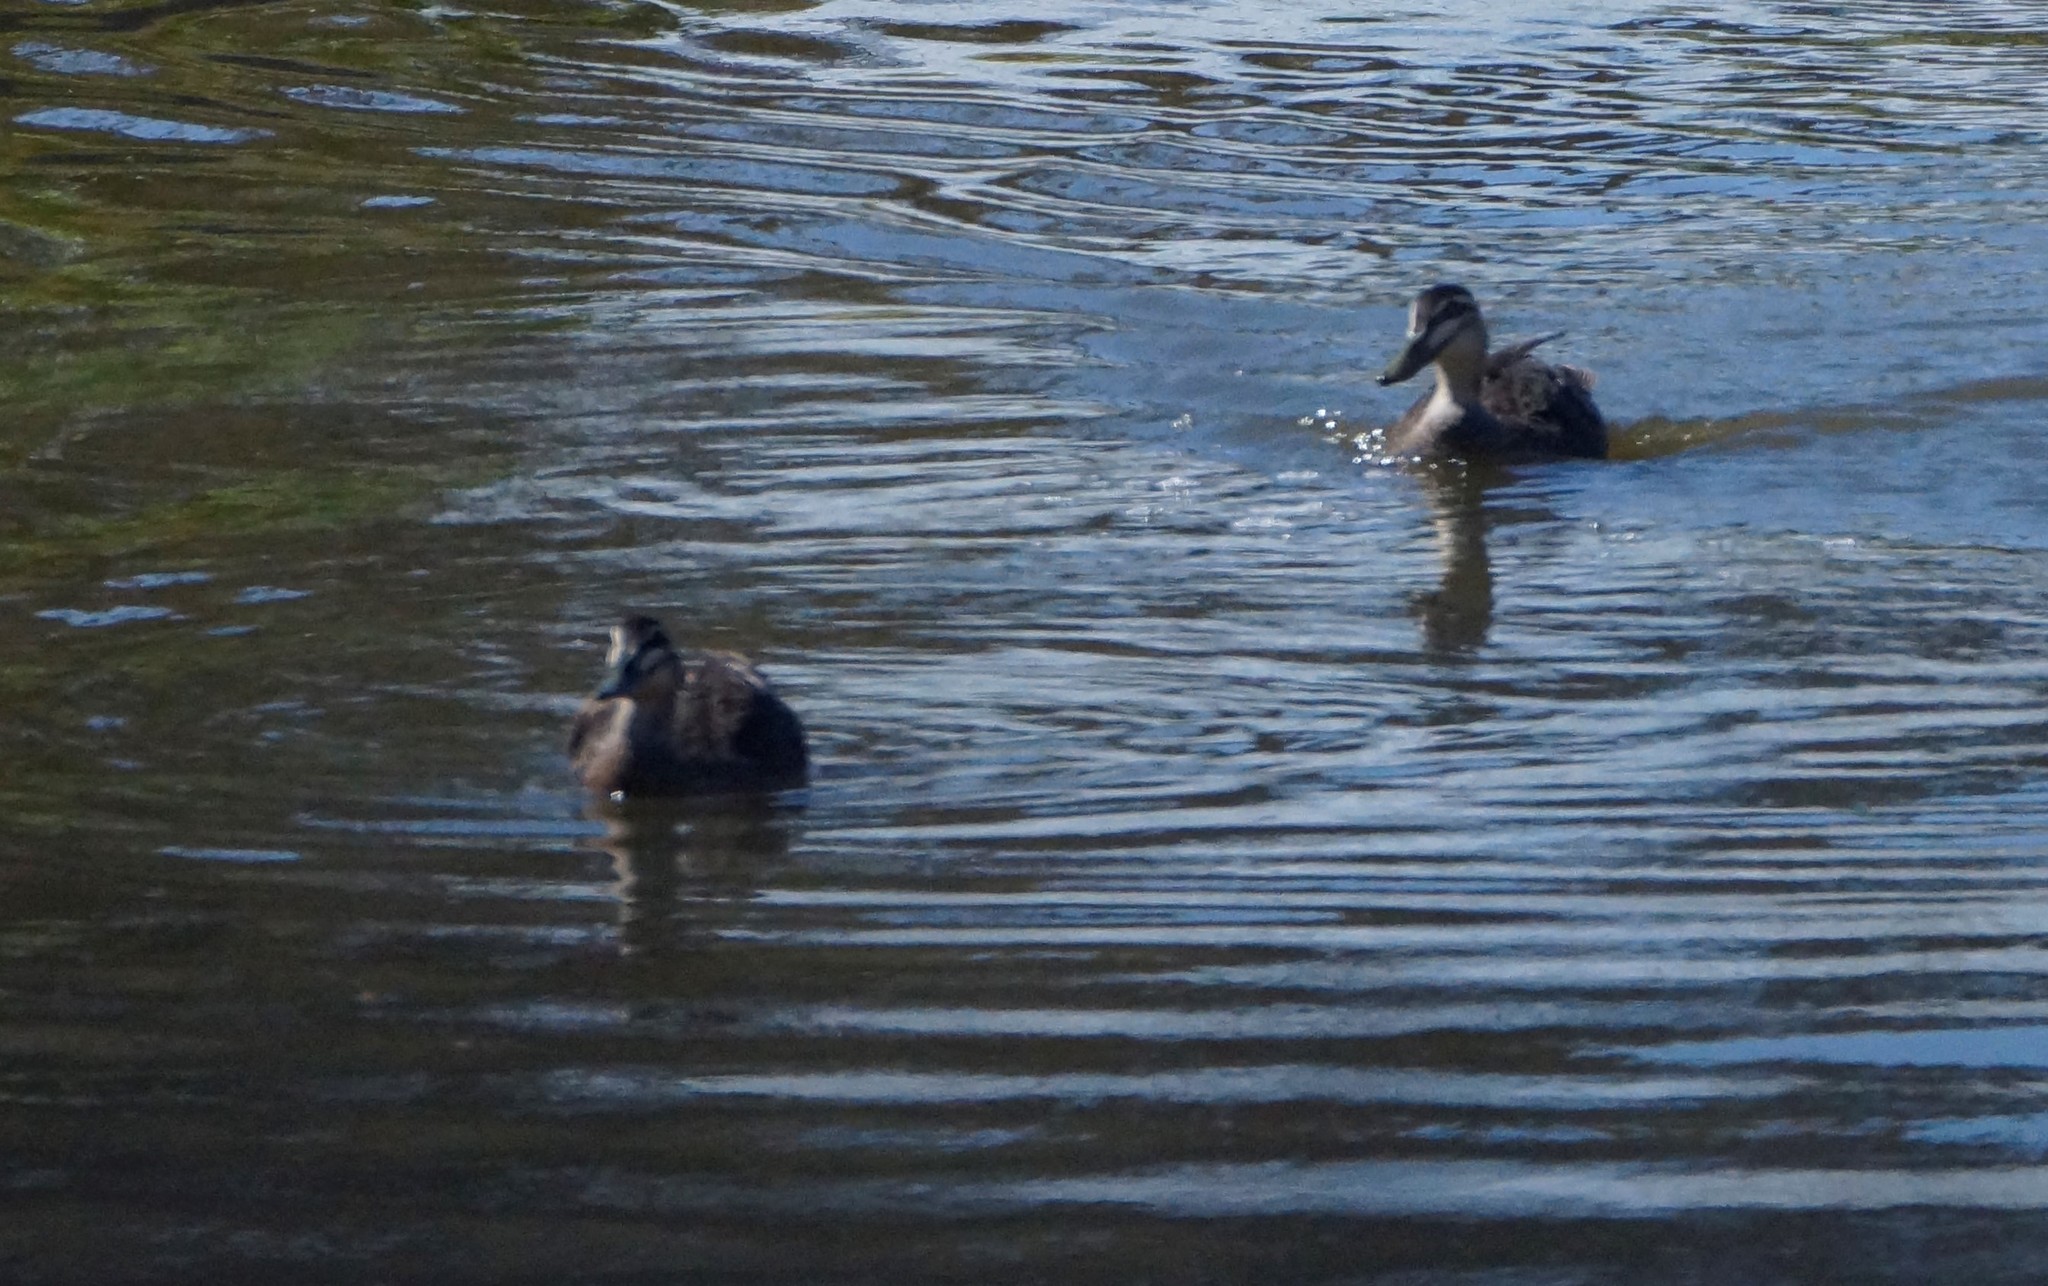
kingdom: Animalia
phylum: Chordata
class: Aves
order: Anseriformes
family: Anatidae
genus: Anas
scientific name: Anas superciliosa
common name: Pacific black duck
